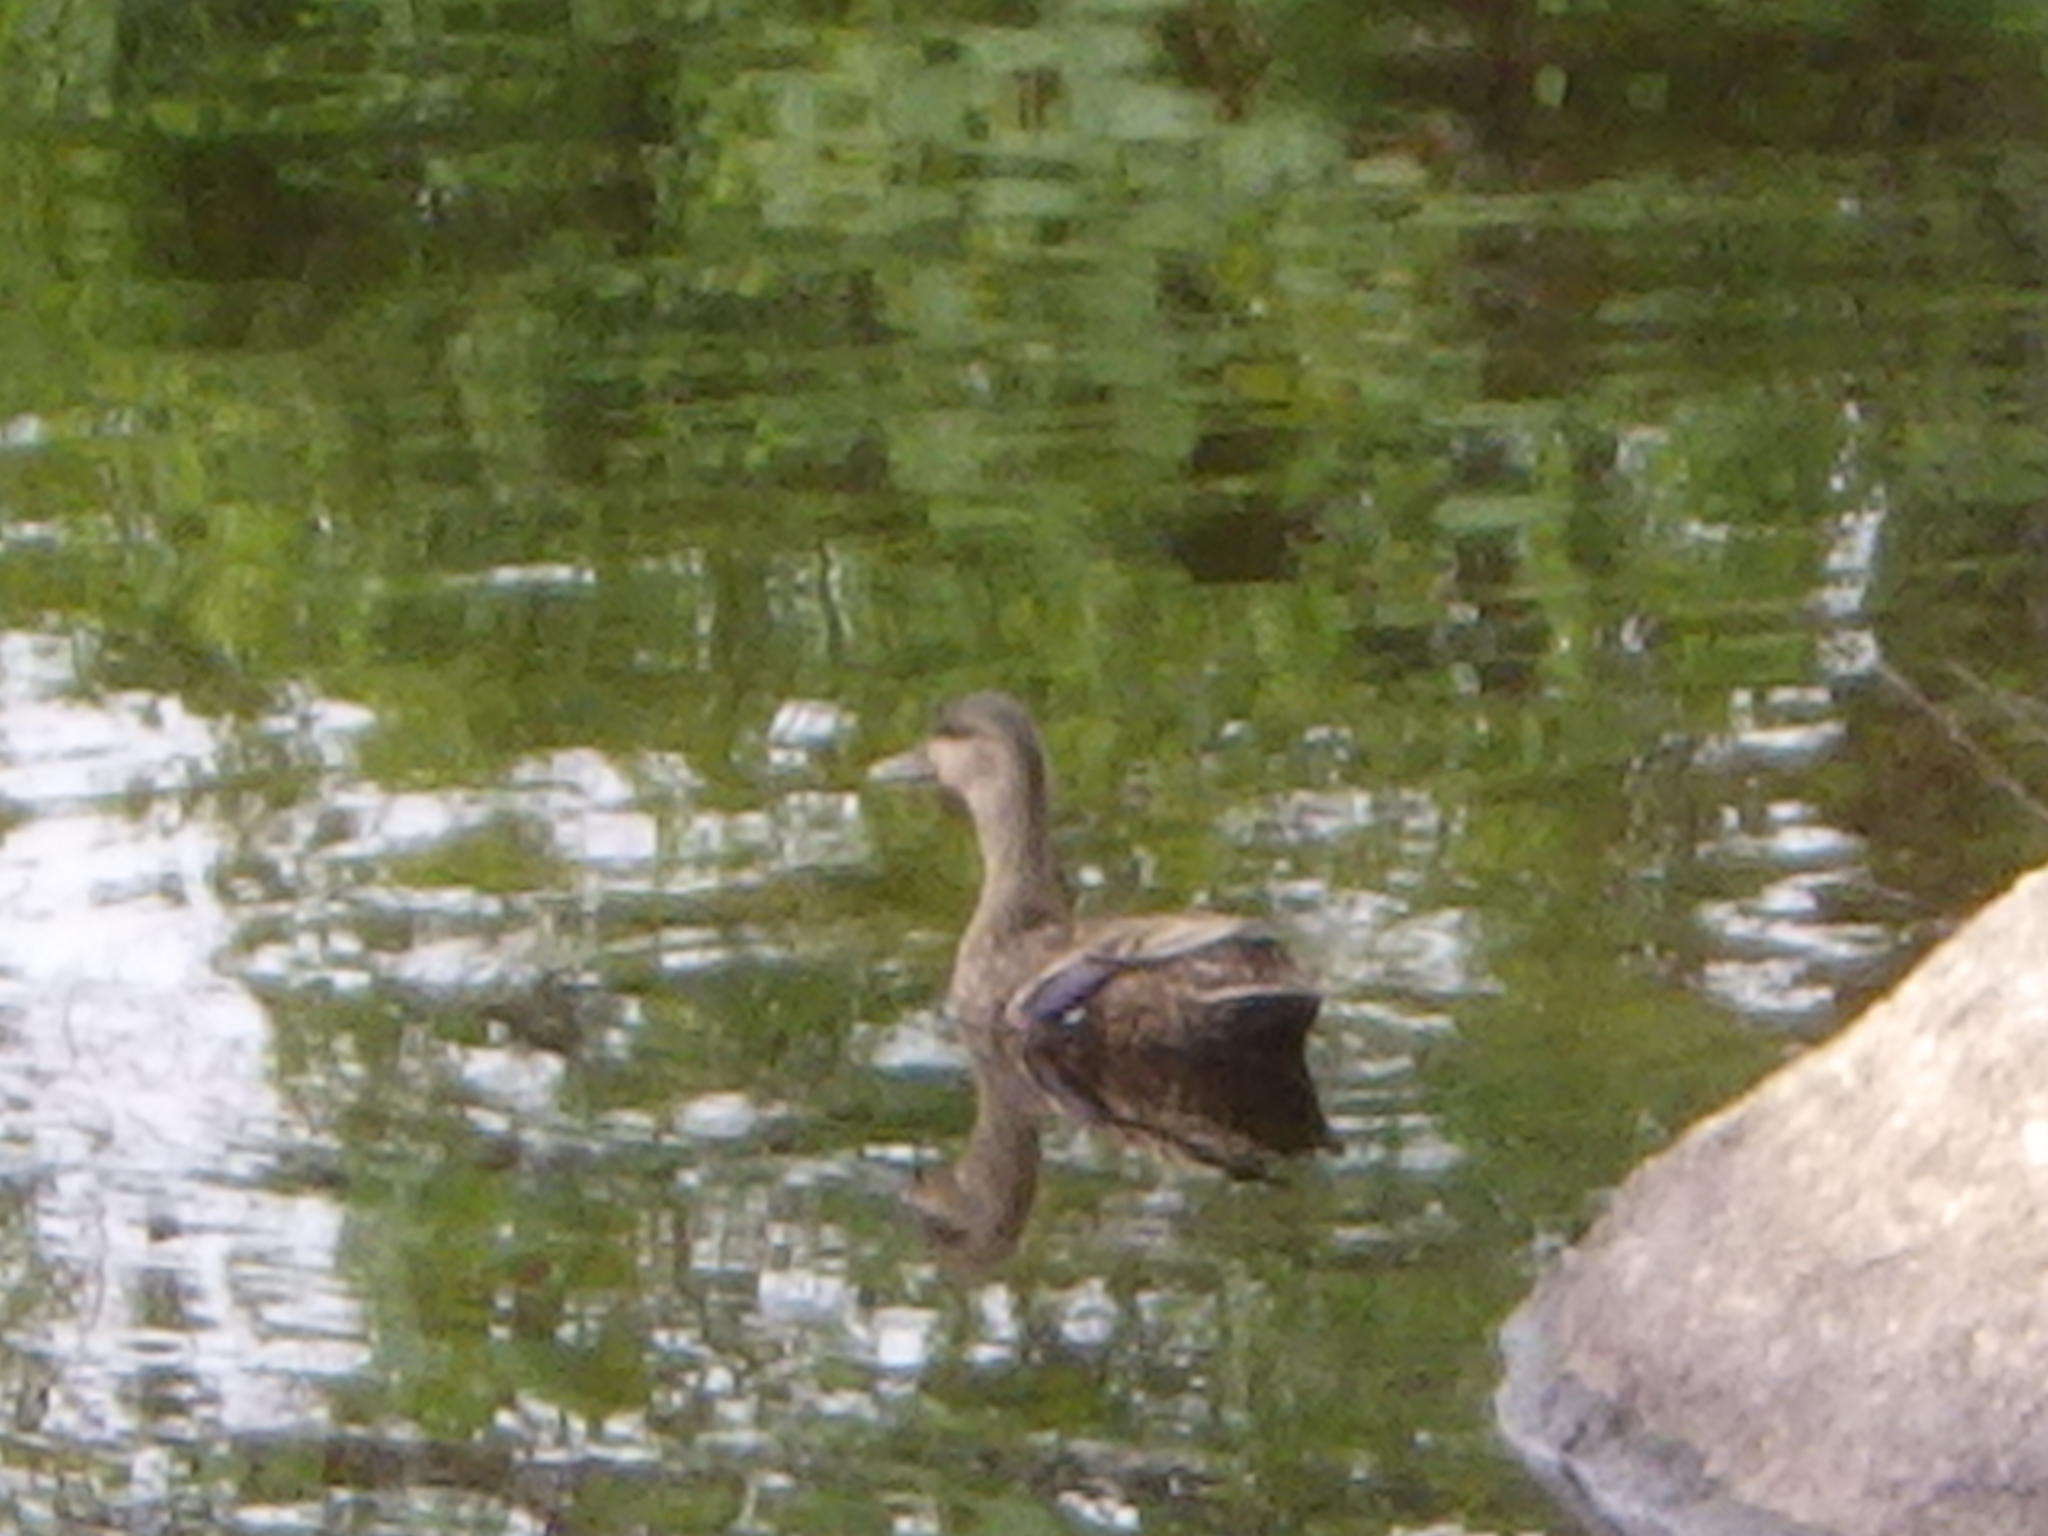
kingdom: Animalia
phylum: Chordata
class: Aves
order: Anseriformes
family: Anatidae
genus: Anas
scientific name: Anas
